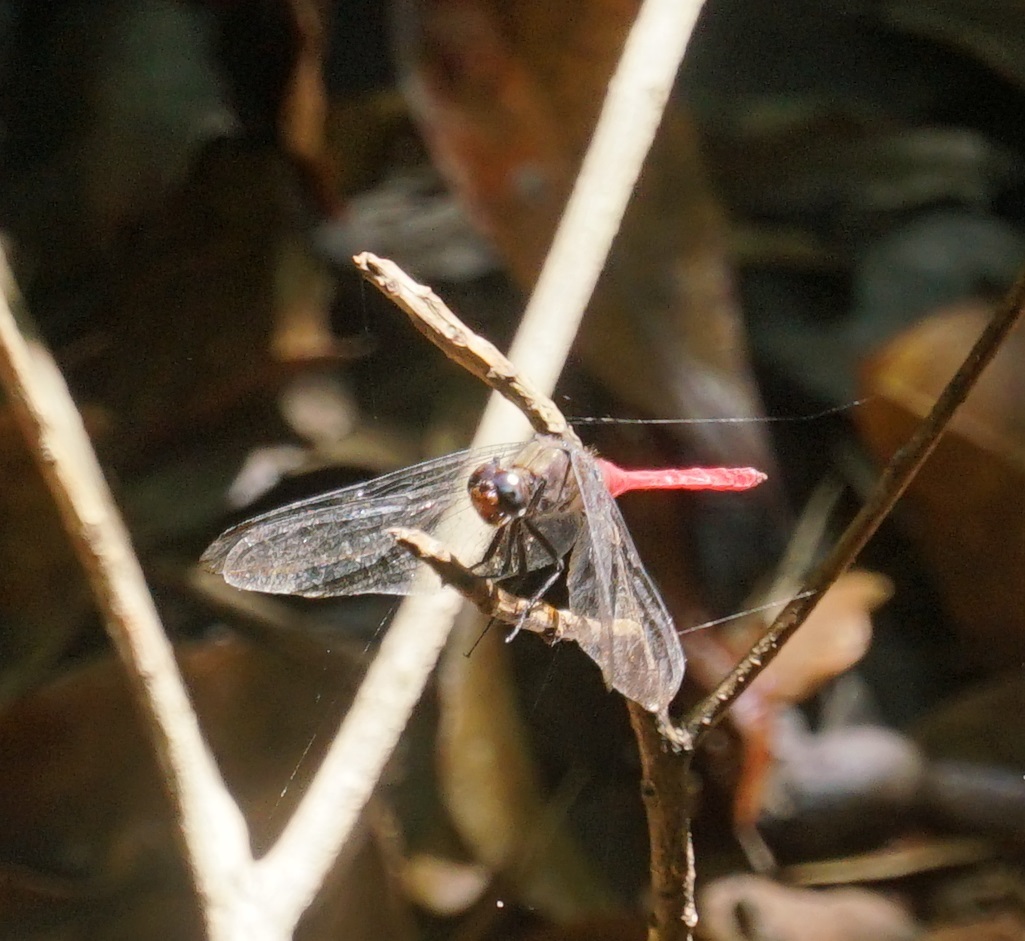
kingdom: Animalia
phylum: Arthropoda
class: Insecta
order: Odonata
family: Libellulidae
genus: Orthetrum
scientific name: Orthetrum villosovittatum
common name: Firery skimmer
